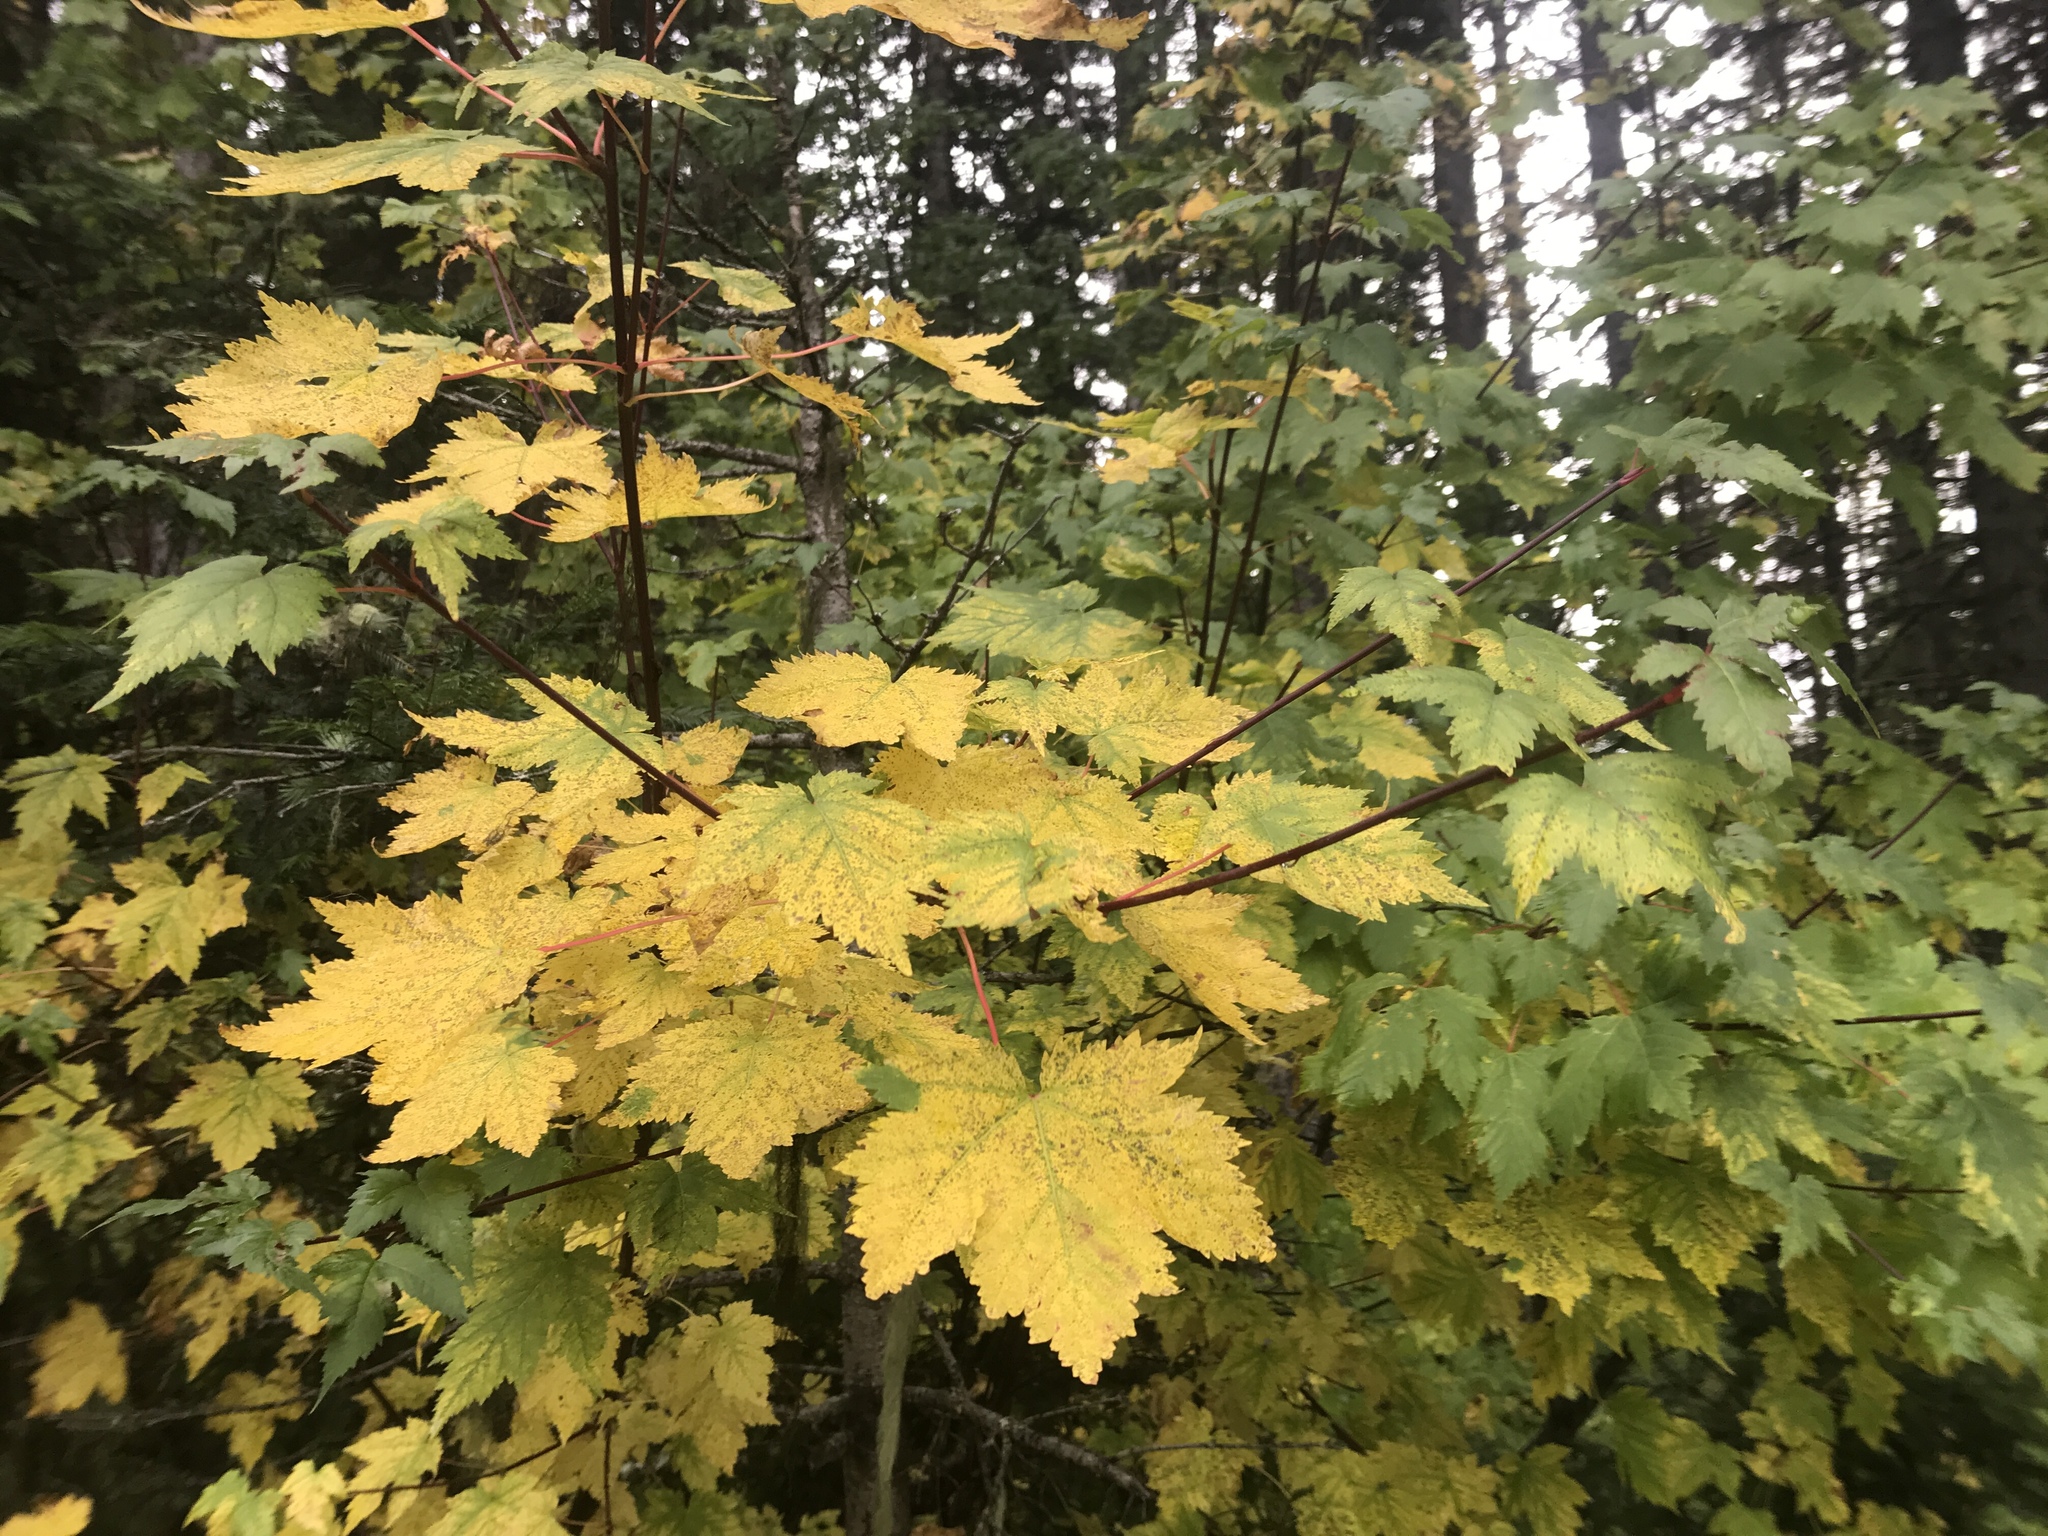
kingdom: Plantae
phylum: Tracheophyta
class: Magnoliopsida
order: Sapindales
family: Sapindaceae
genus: Acer
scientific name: Acer glabrum
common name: Rocky mountain maple
